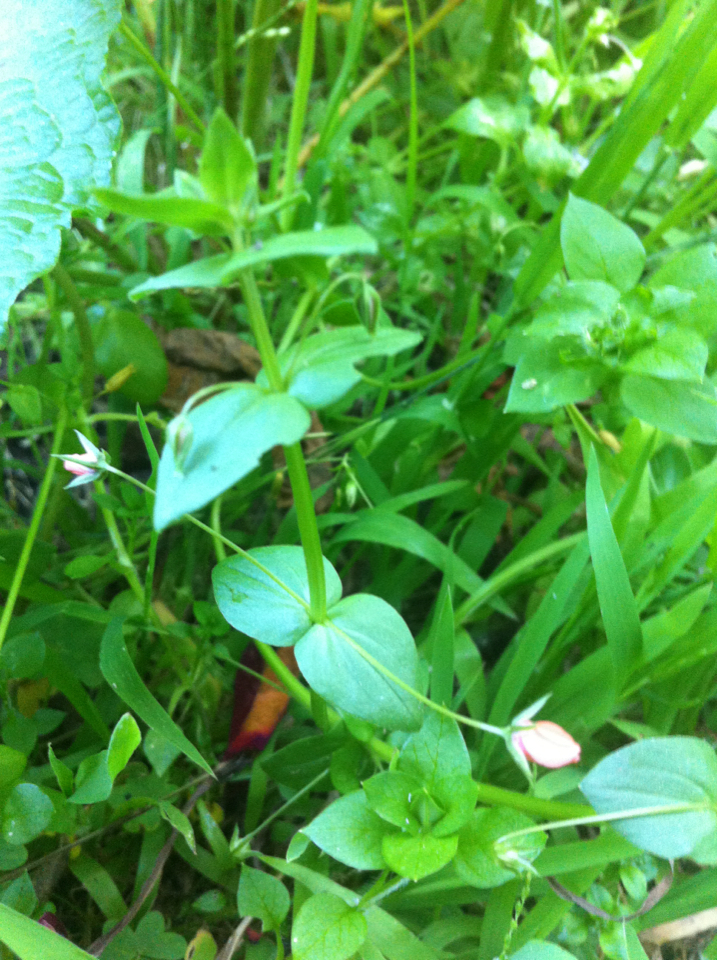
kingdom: Plantae
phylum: Tracheophyta
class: Magnoliopsida
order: Ericales
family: Primulaceae
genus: Lysimachia
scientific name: Lysimachia arvensis
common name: Scarlet pimpernel
